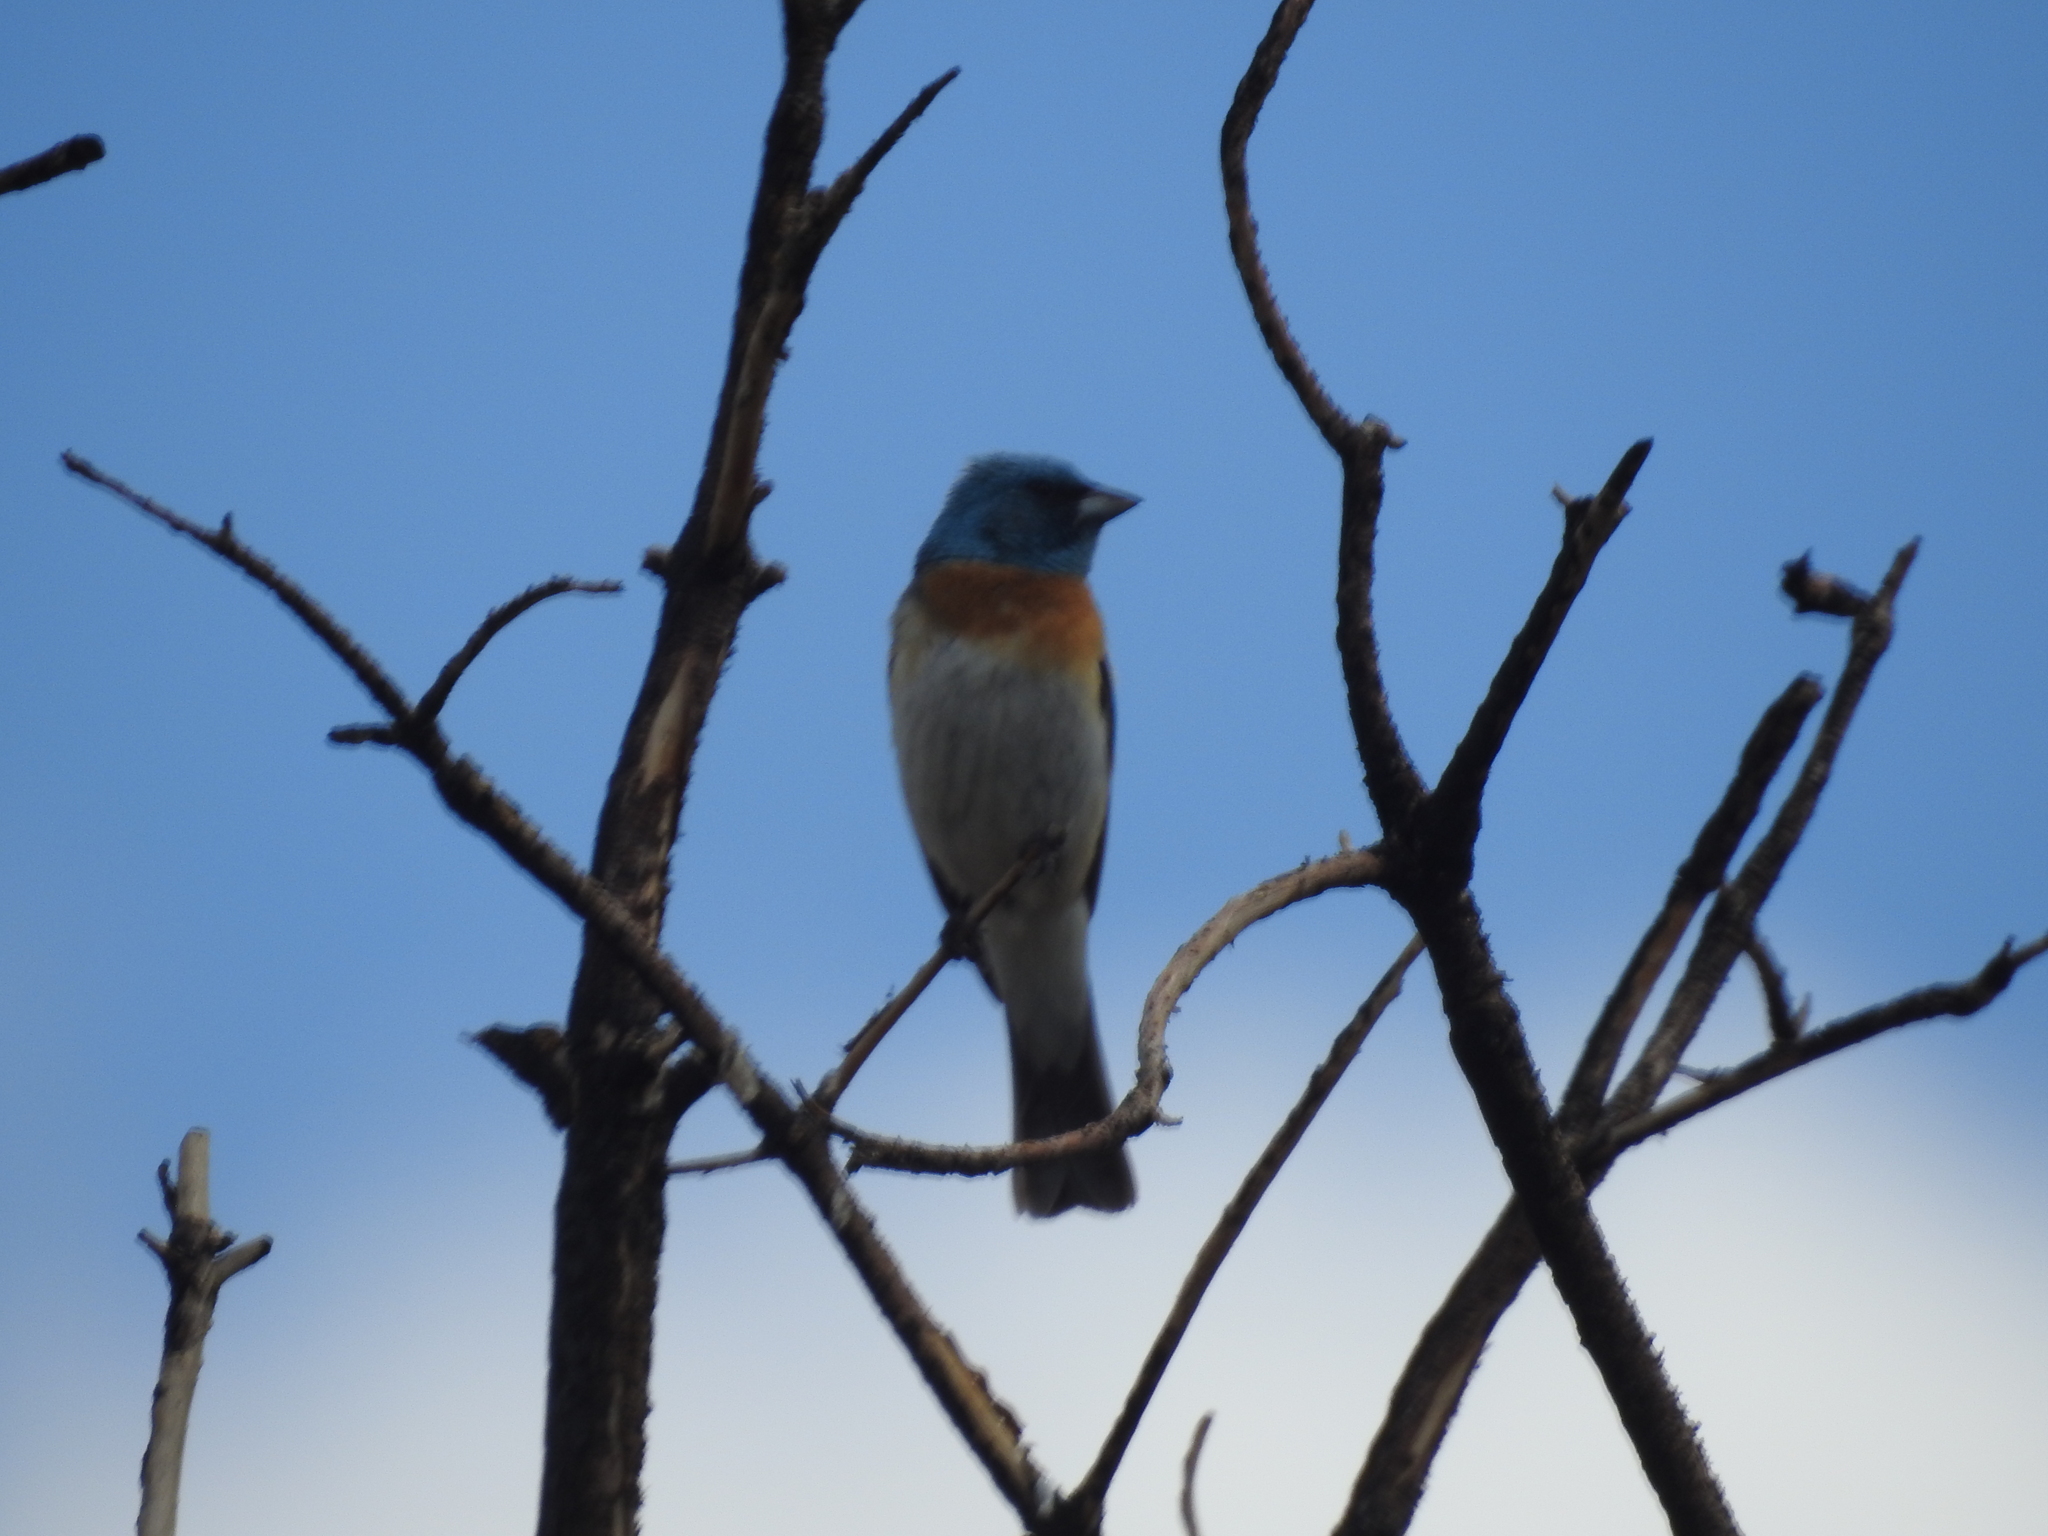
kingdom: Animalia
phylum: Chordata
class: Aves
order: Passeriformes
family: Cardinalidae
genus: Passerina
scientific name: Passerina amoena
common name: Lazuli bunting
